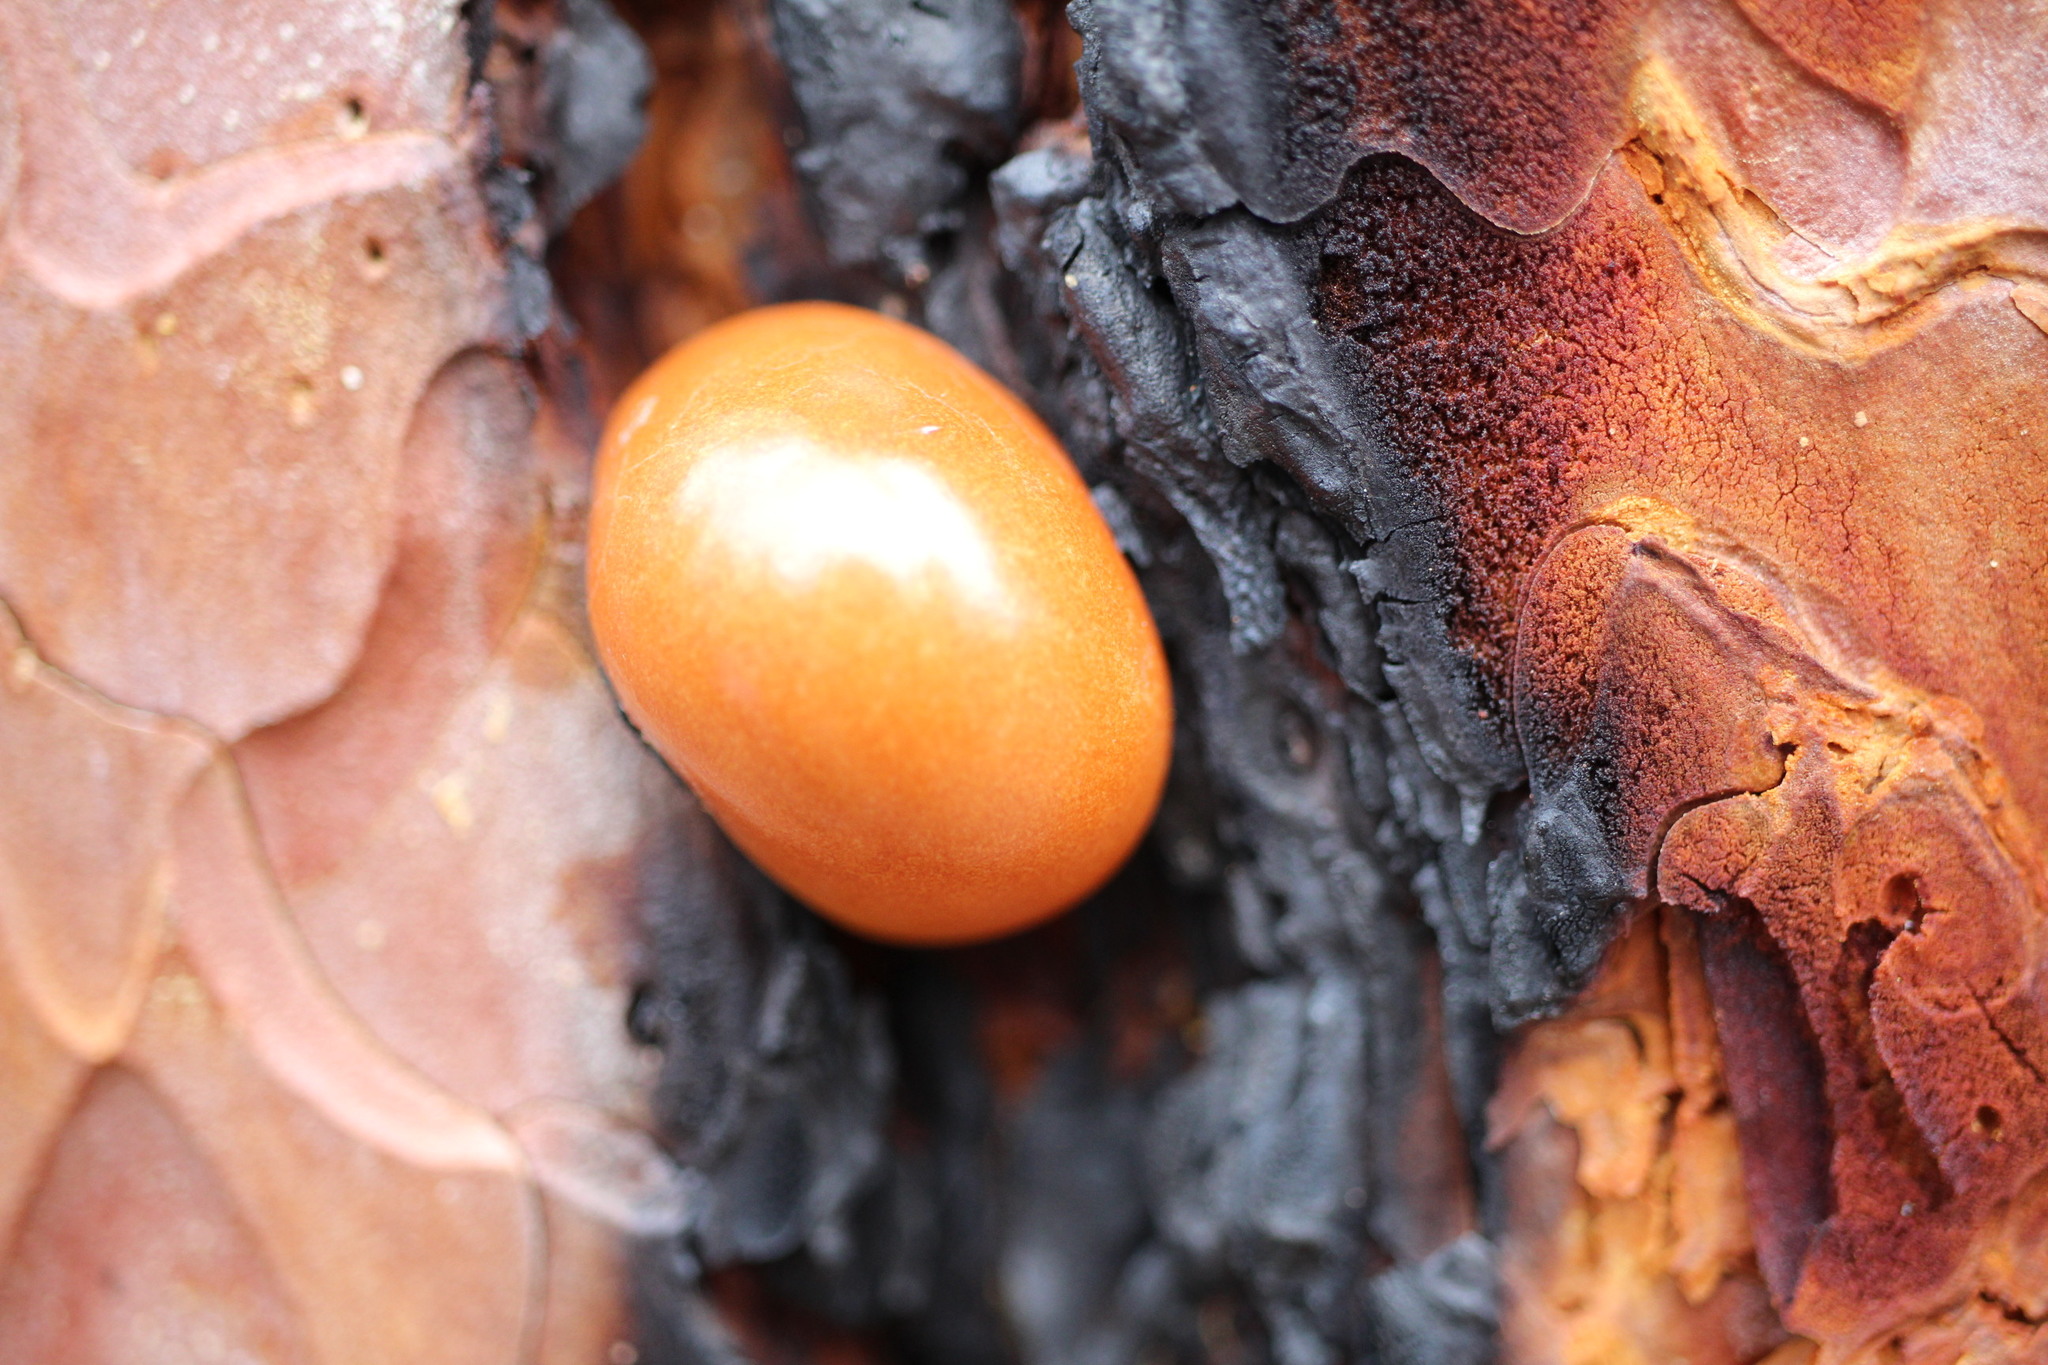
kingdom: Fungi
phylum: Basidiomycota
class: Agaricomycetes
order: Polyporales
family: Polyporaceae
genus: Cryptoporus
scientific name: Cryptoporus volvatus
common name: Veiled polypore
